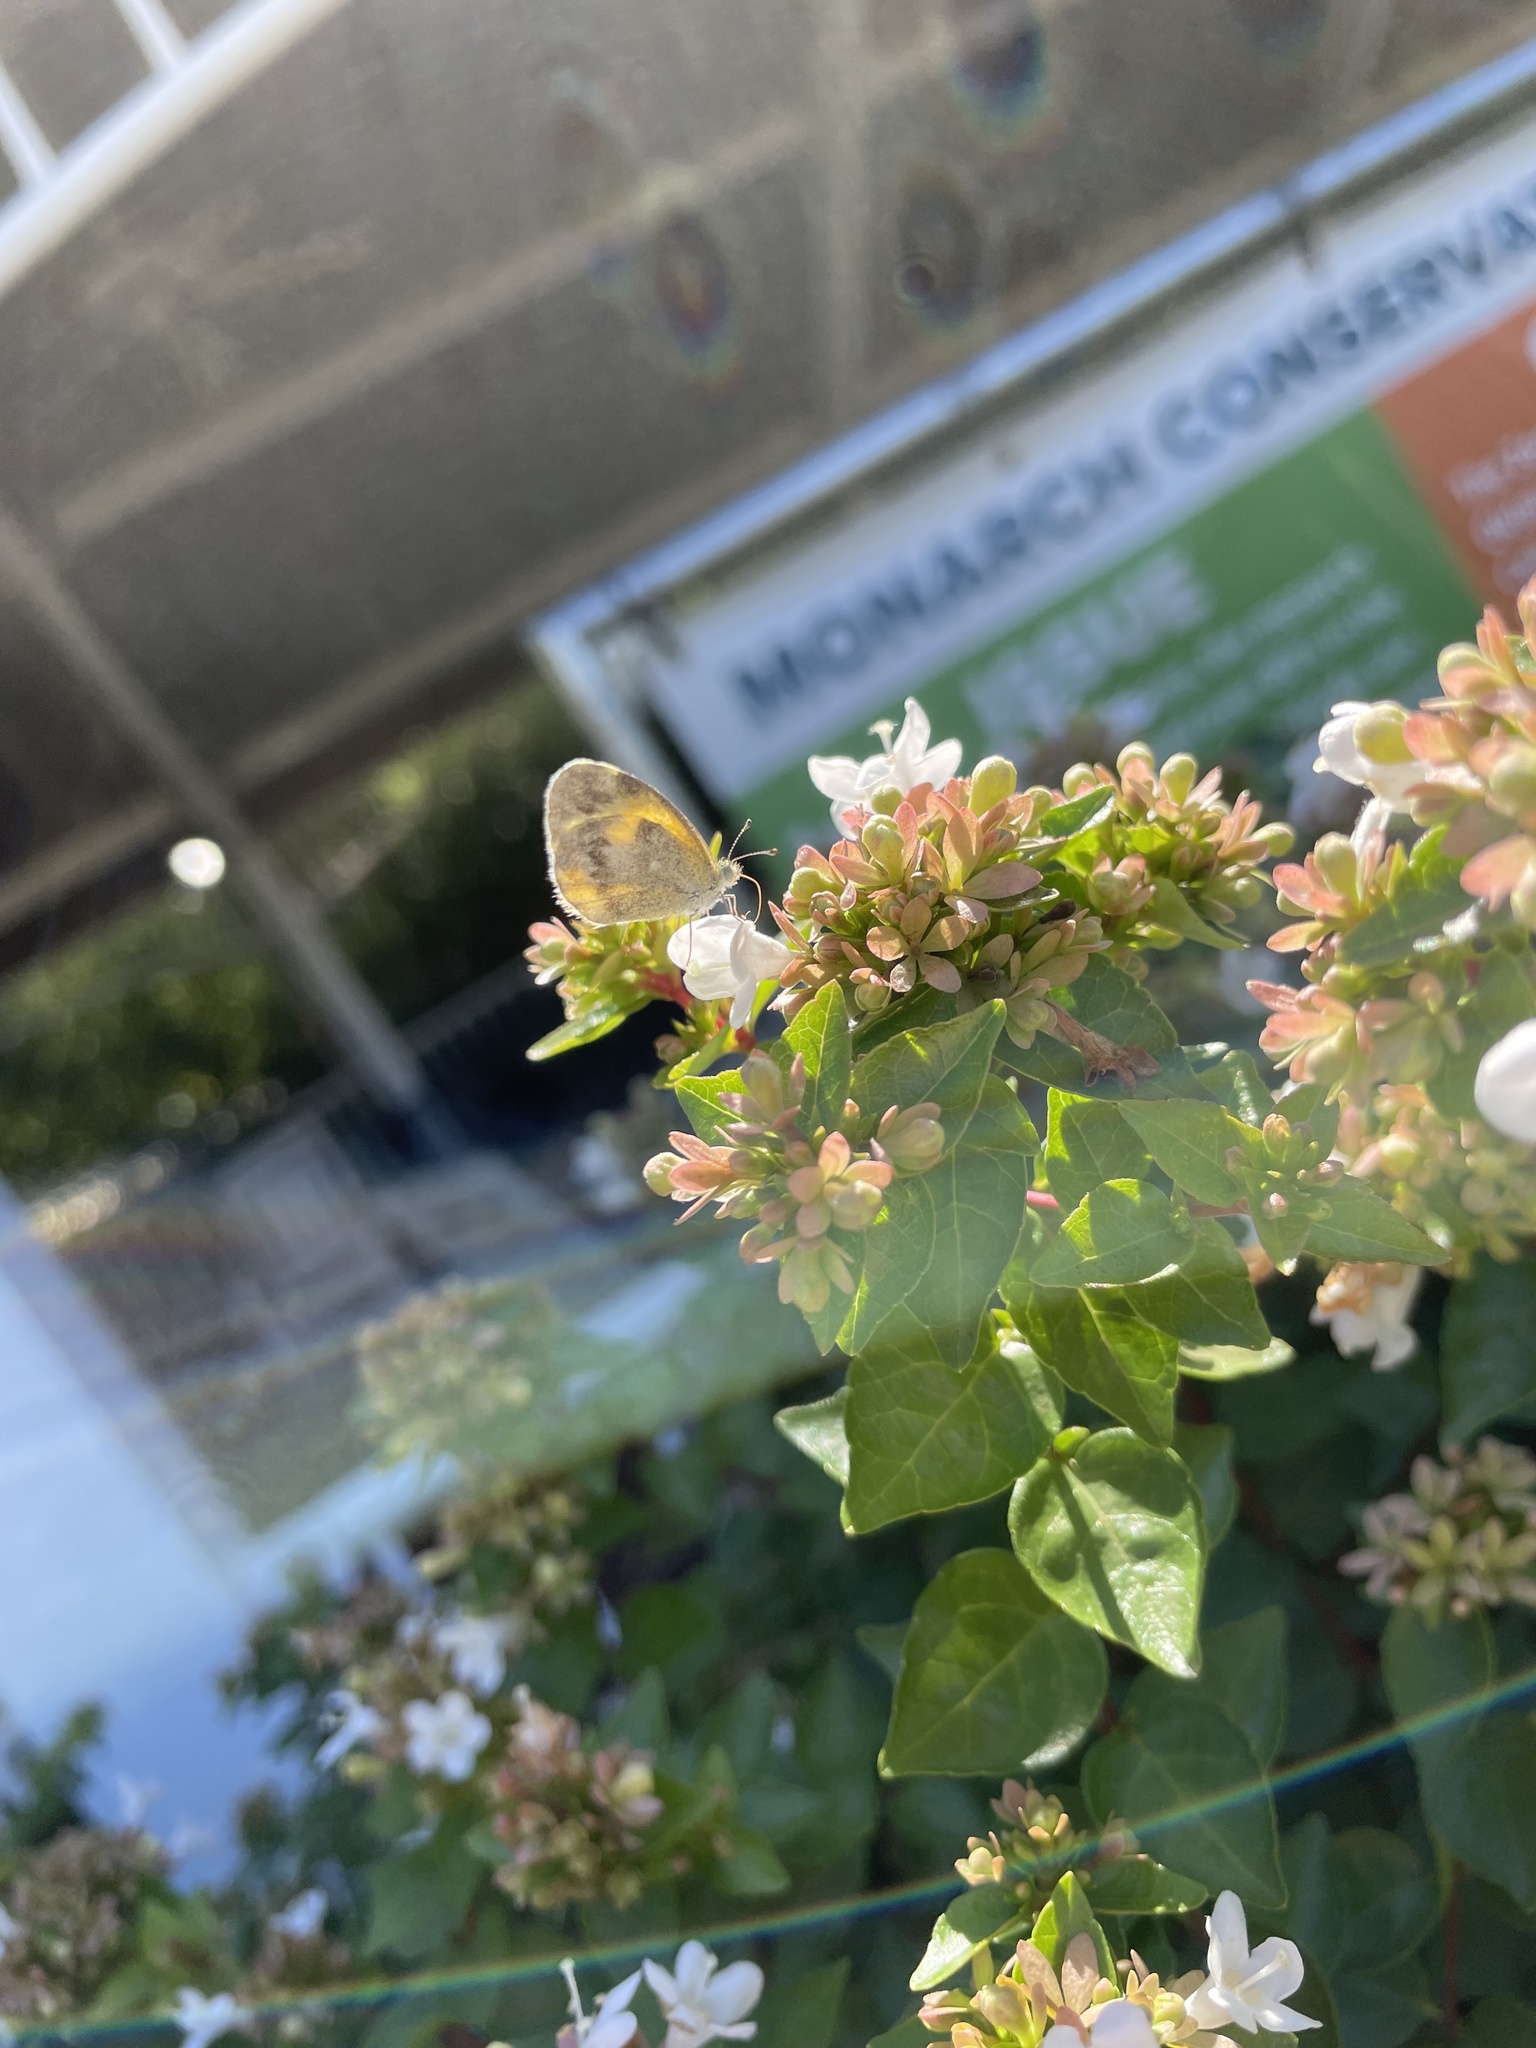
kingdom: Animalia
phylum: Arthropoda
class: Insecta
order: Lepidoptera
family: Pieridae
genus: Nathalis
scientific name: Nathalis iole
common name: Dainty sulphur
